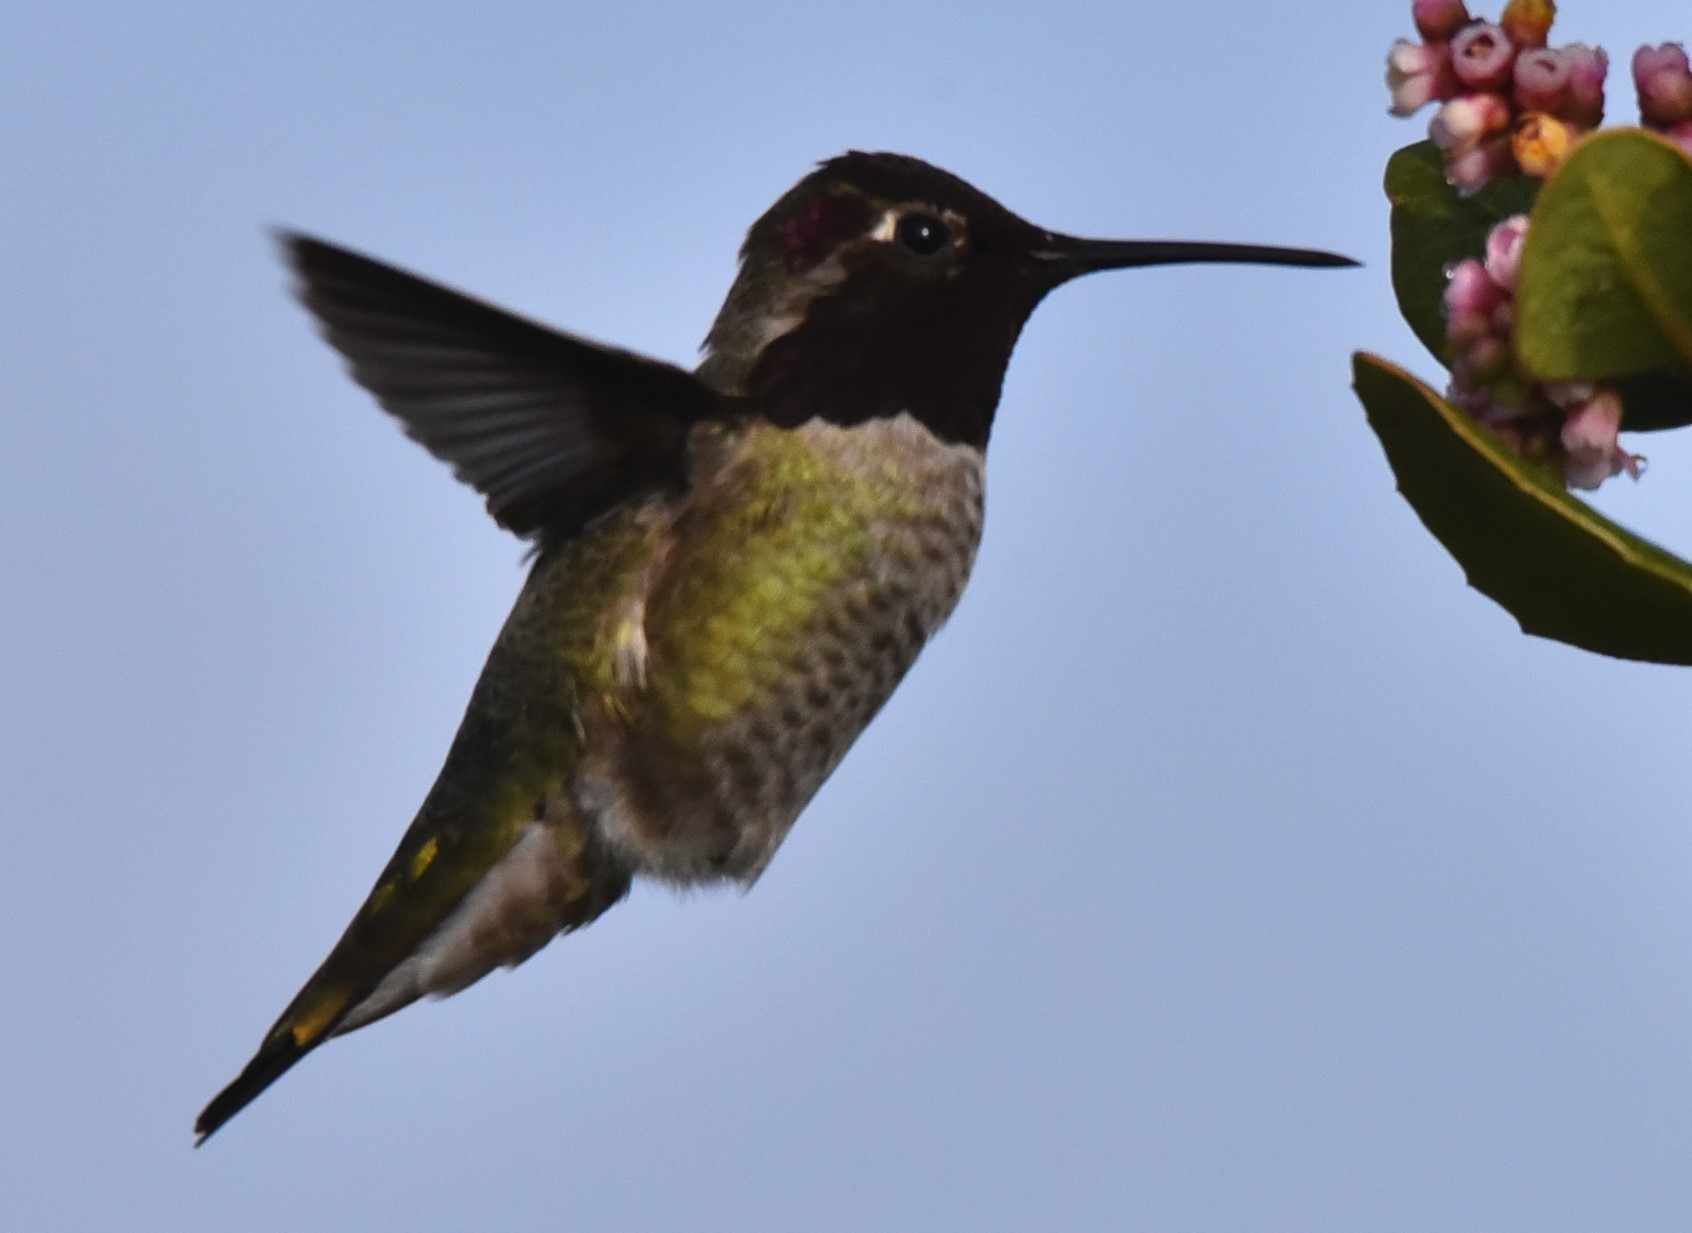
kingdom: Animalia
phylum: Chordata
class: Aves
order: Apodiformes
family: Trochilidae
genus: Calypte
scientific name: Calypte anna
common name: Anna's hummingbird
